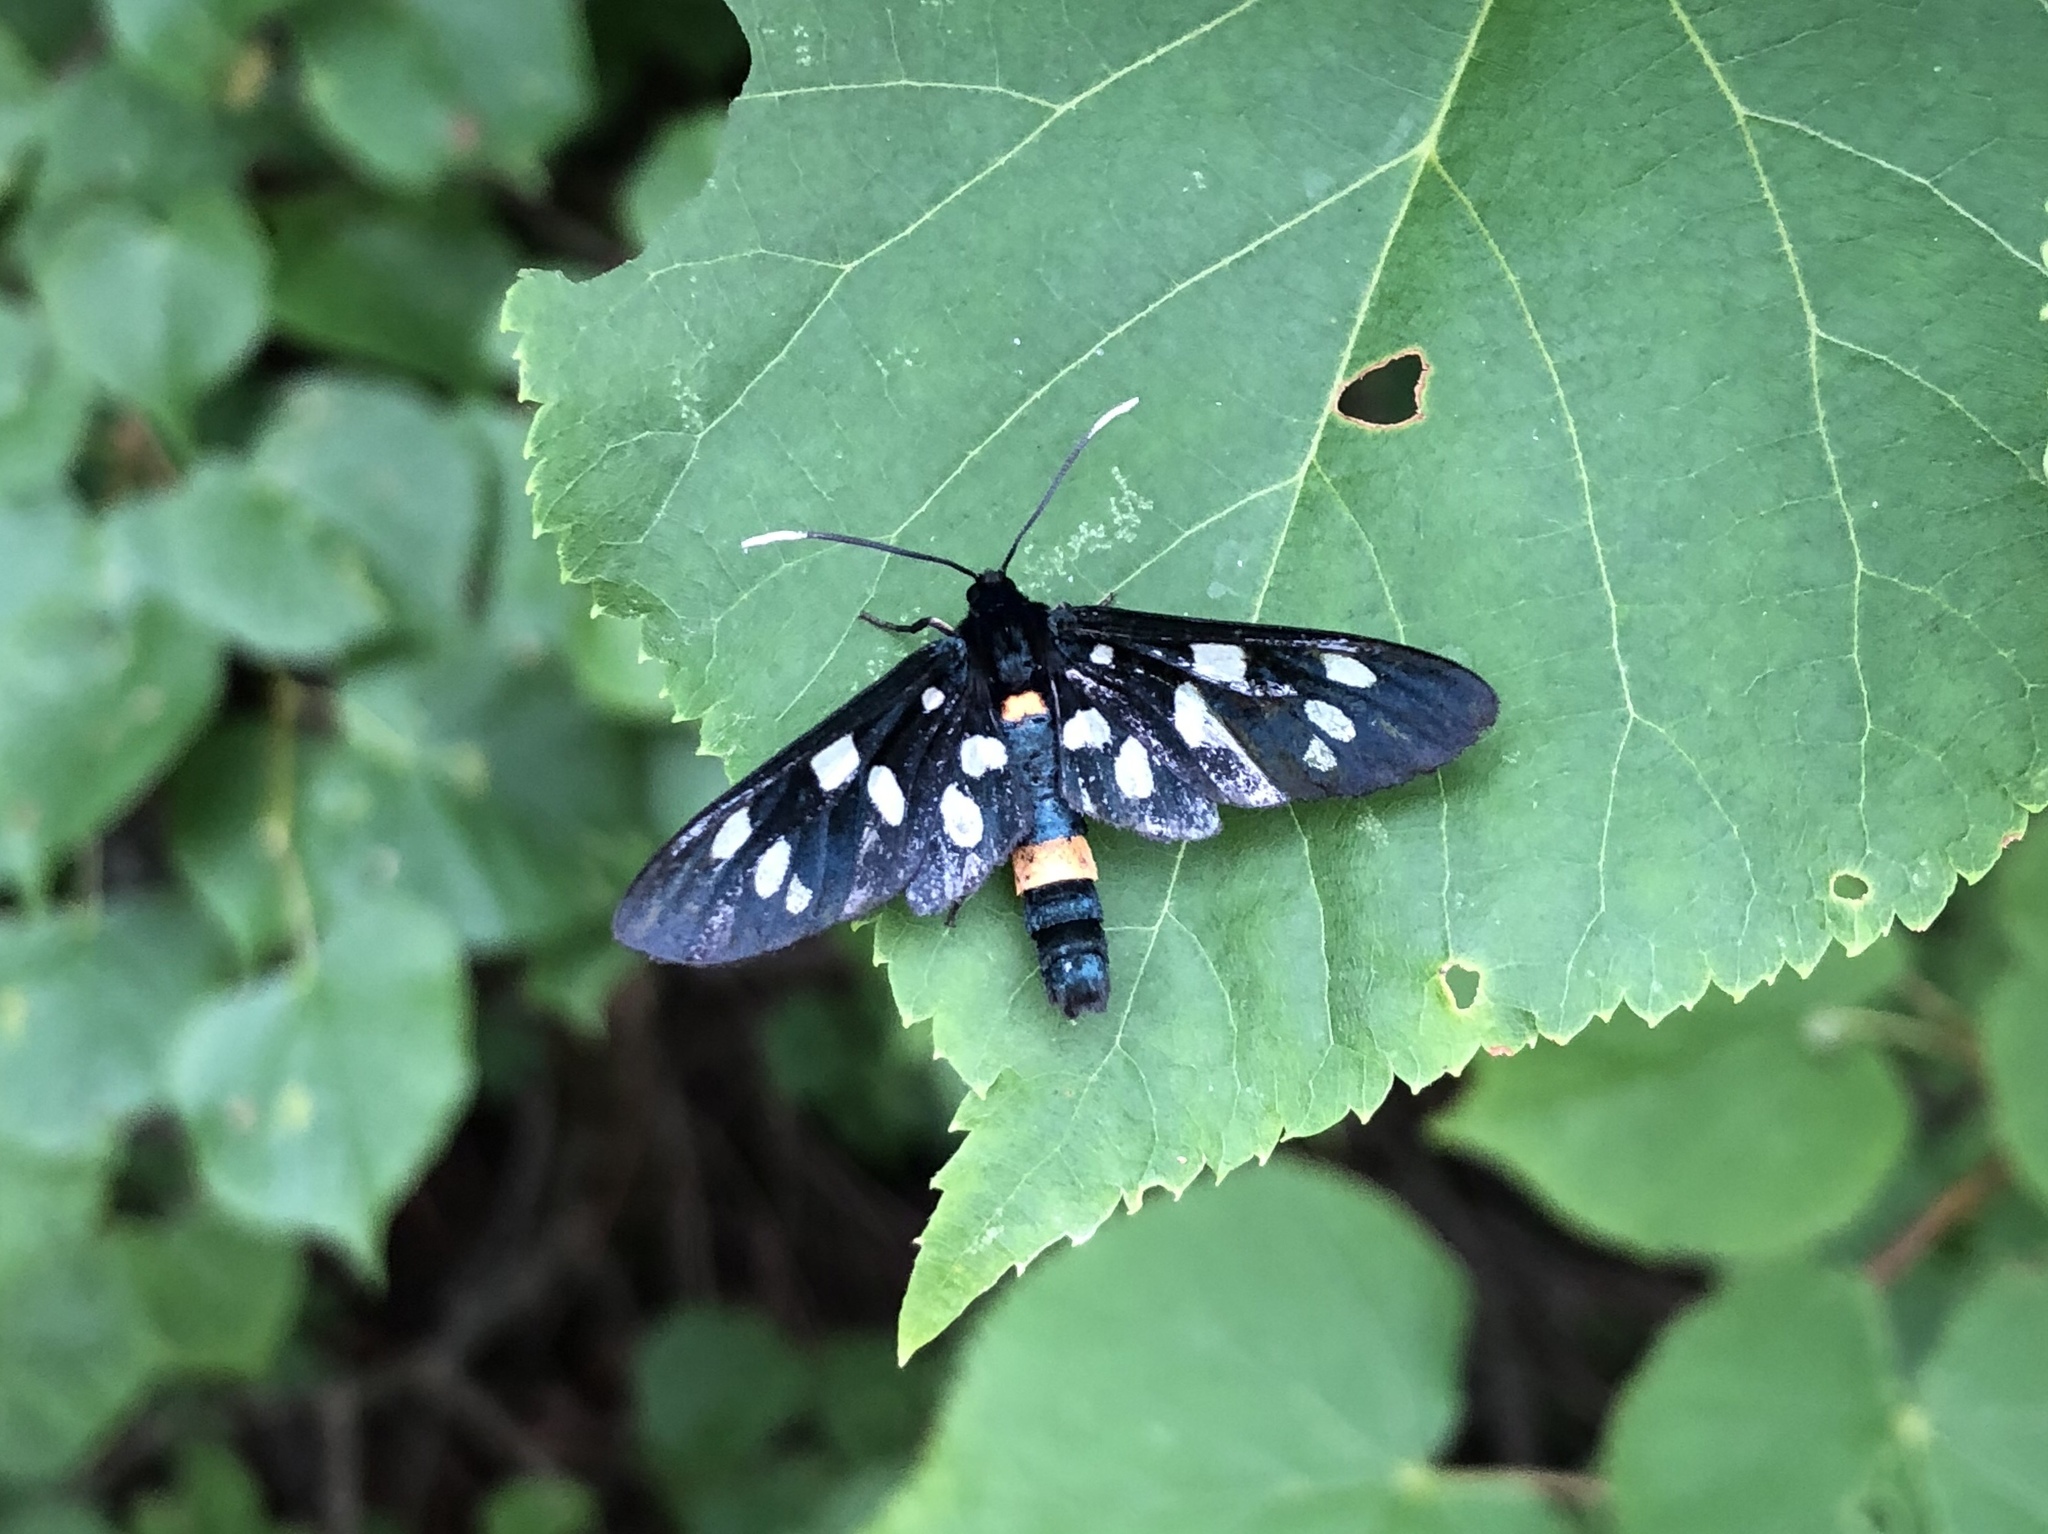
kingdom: Animalia
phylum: Arthropoda
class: Insecta
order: Lepidoptera
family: Erebidae
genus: Amata
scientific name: Amata phegea
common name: Nine-spotted
